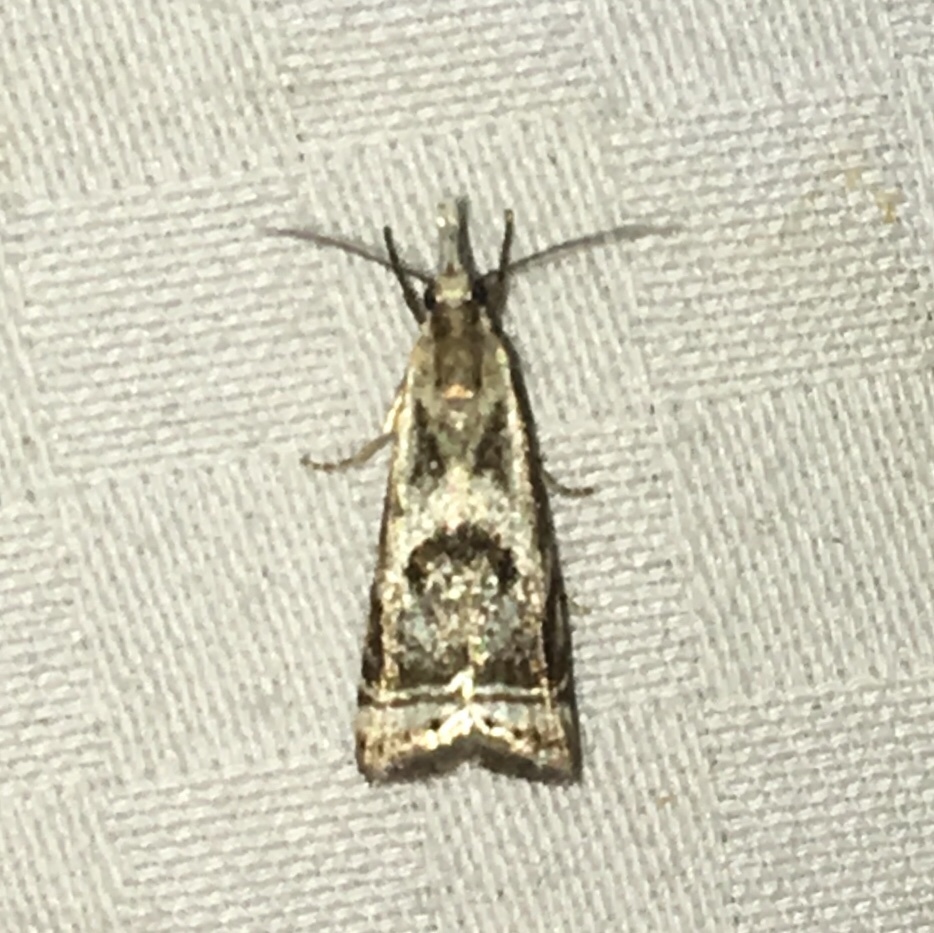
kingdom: Animalia
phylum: Arthropoda
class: Insecta
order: Lepidoptera
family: Crambidae
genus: Microcrambus
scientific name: Microcrambus elegans
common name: Elegant grass-veneer
